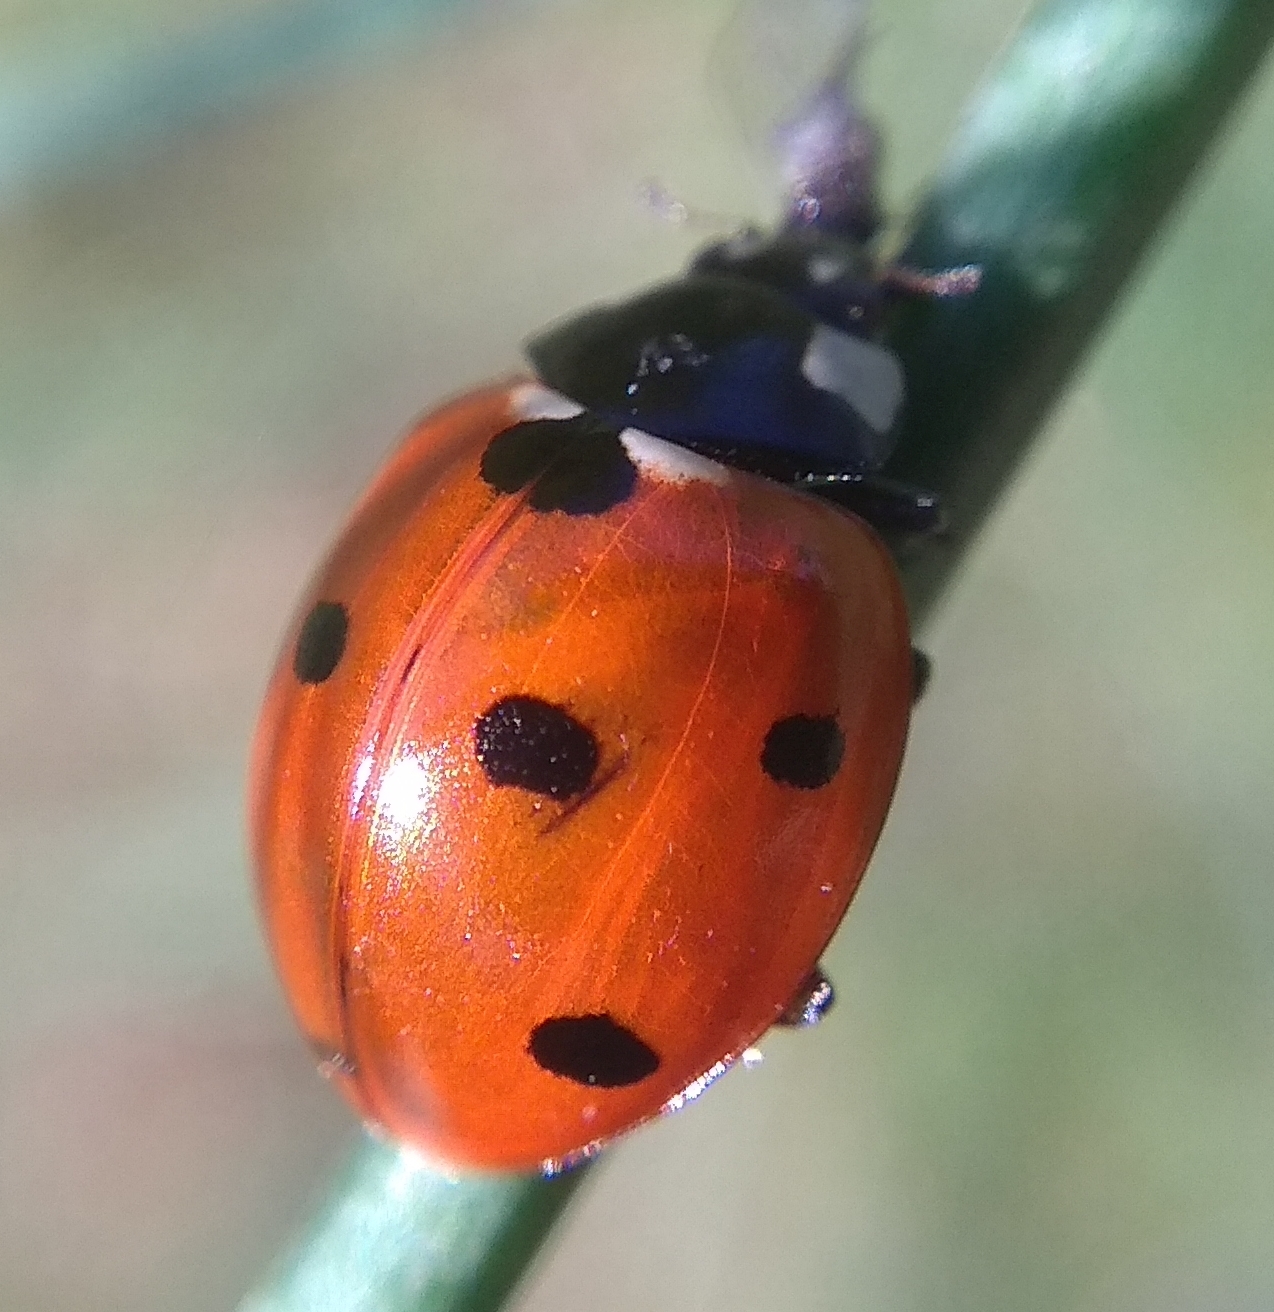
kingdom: Animalia
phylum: Arthropoda
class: Insecta
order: Coleoptera
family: Coccinellidae
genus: Coccinella
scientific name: Coccinella septempunctata
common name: Sevenspotted lady beetle
